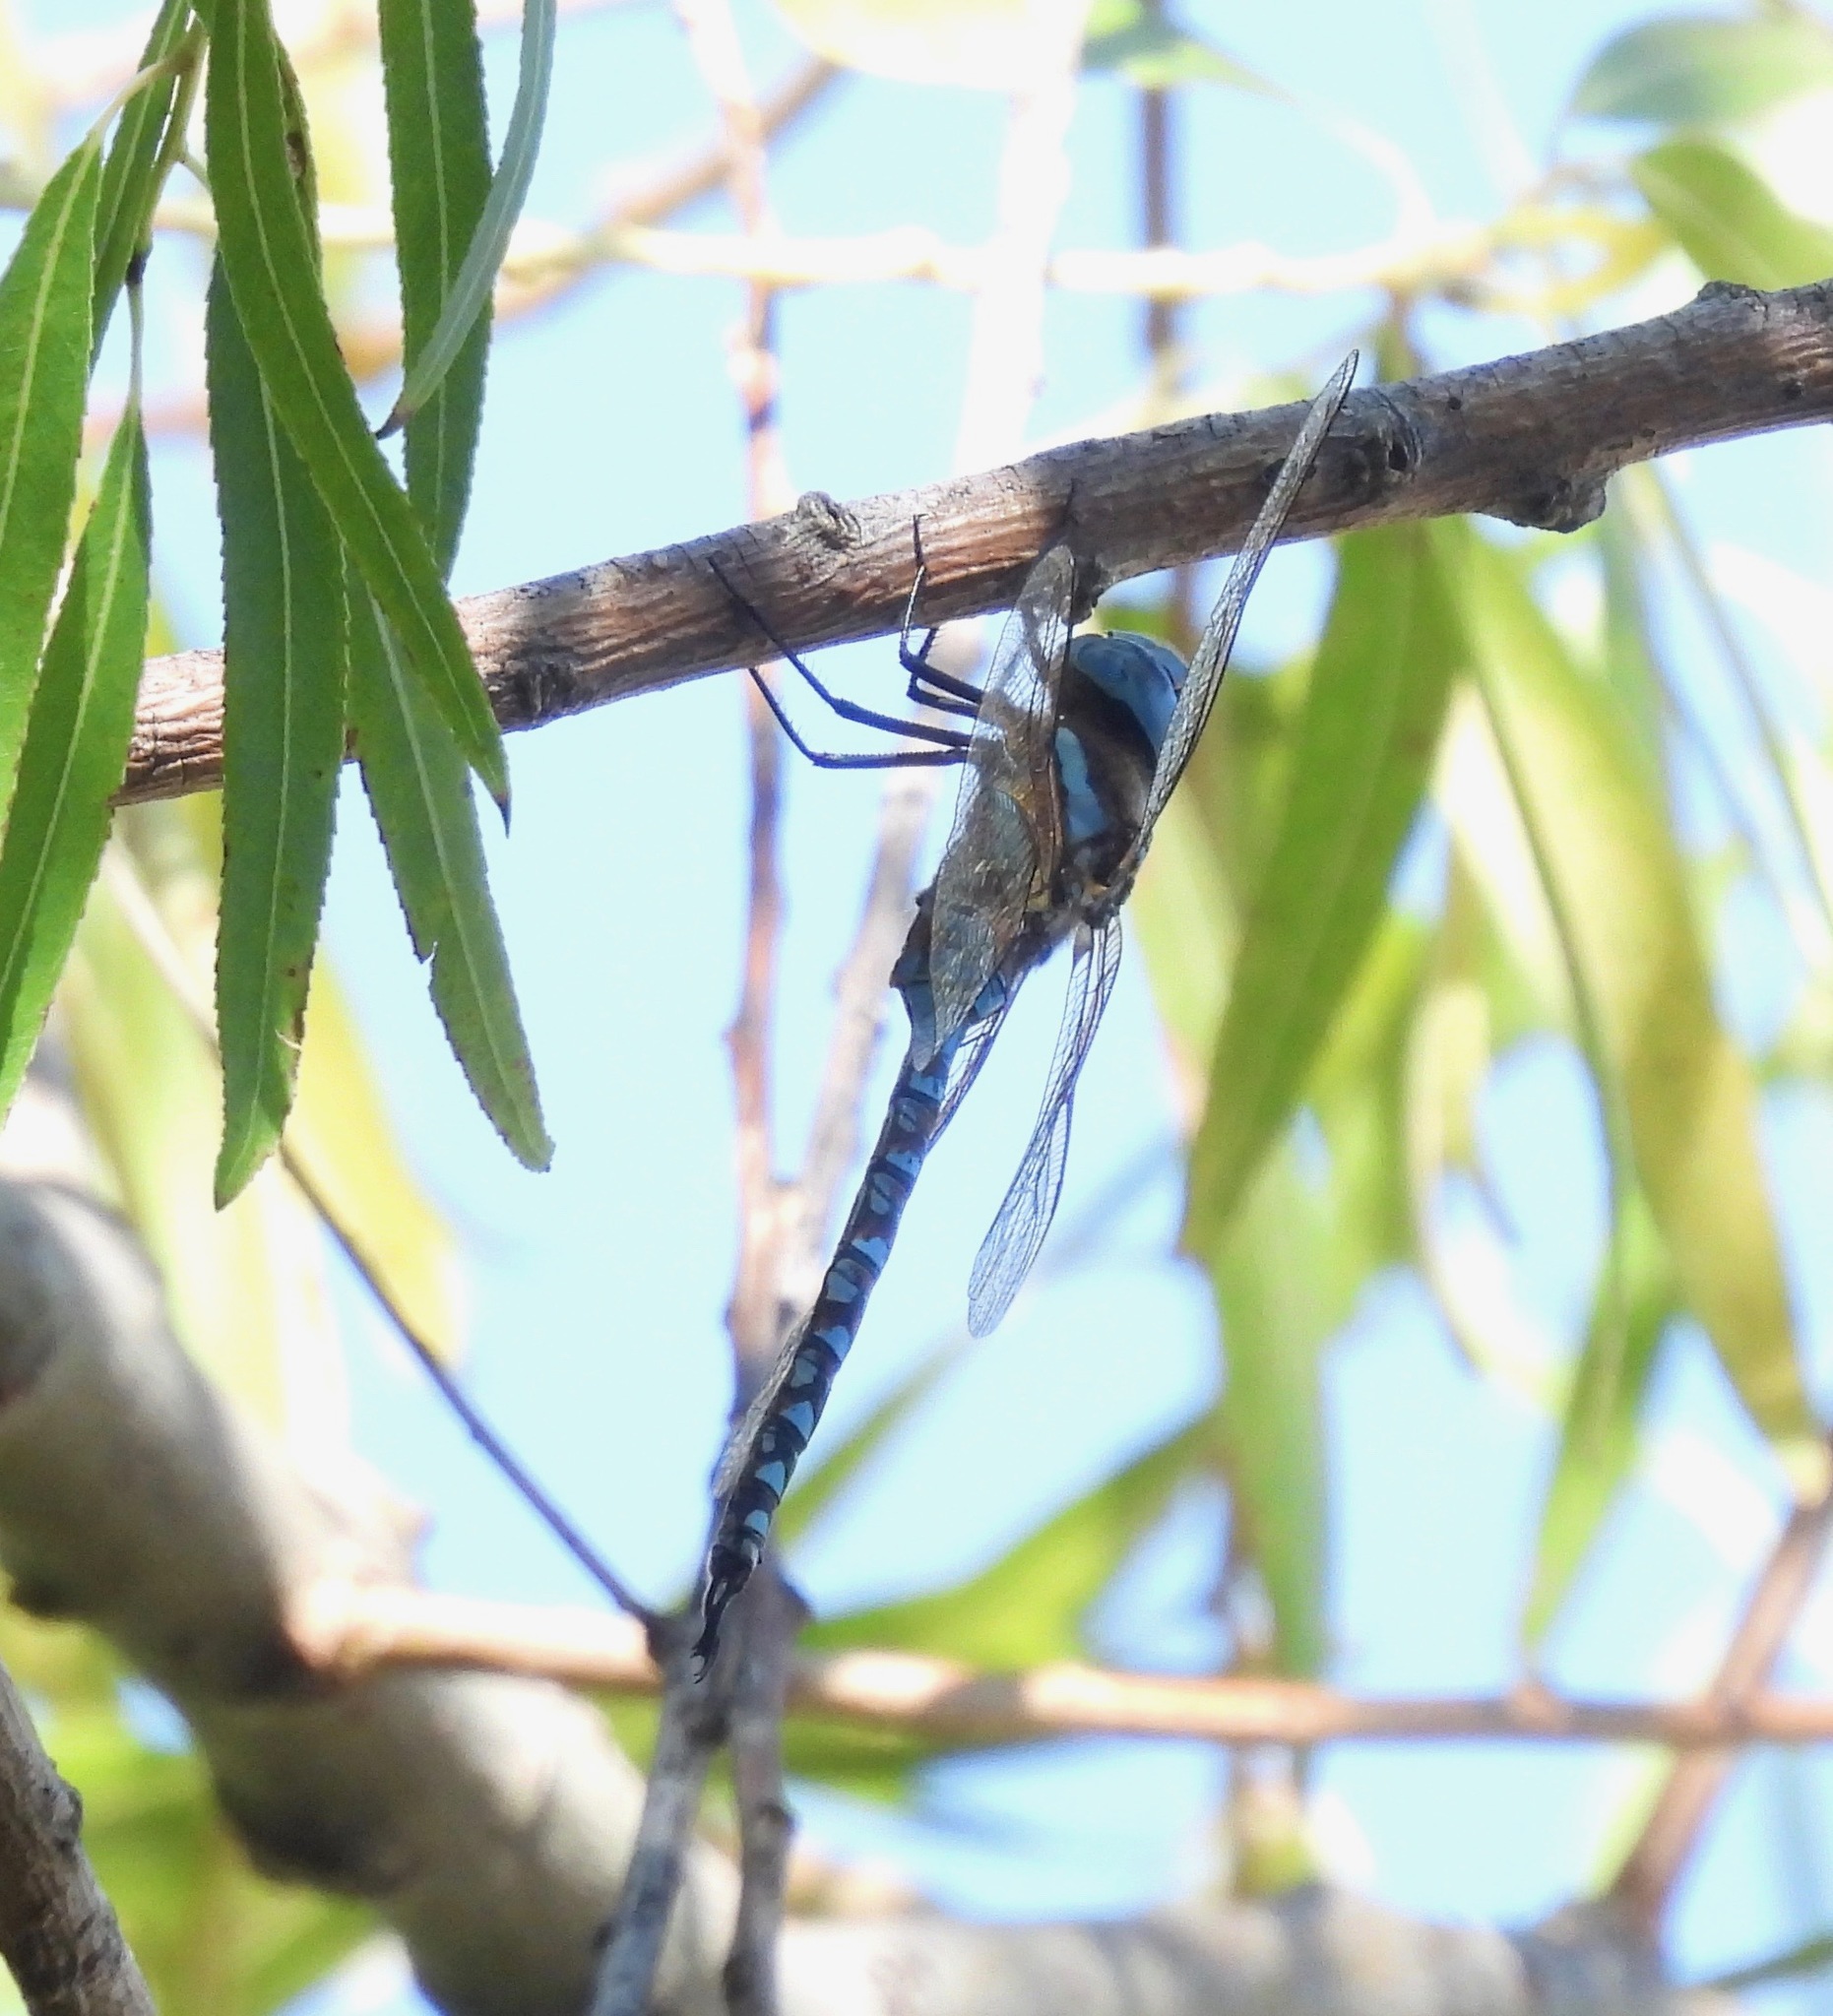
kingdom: Animalia
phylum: Arthropoda
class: Insecta
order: Odonata
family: Aeshnidae
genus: Rhionaeschna
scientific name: Rhionaeschna multicolor
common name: Blue-eyed darner
